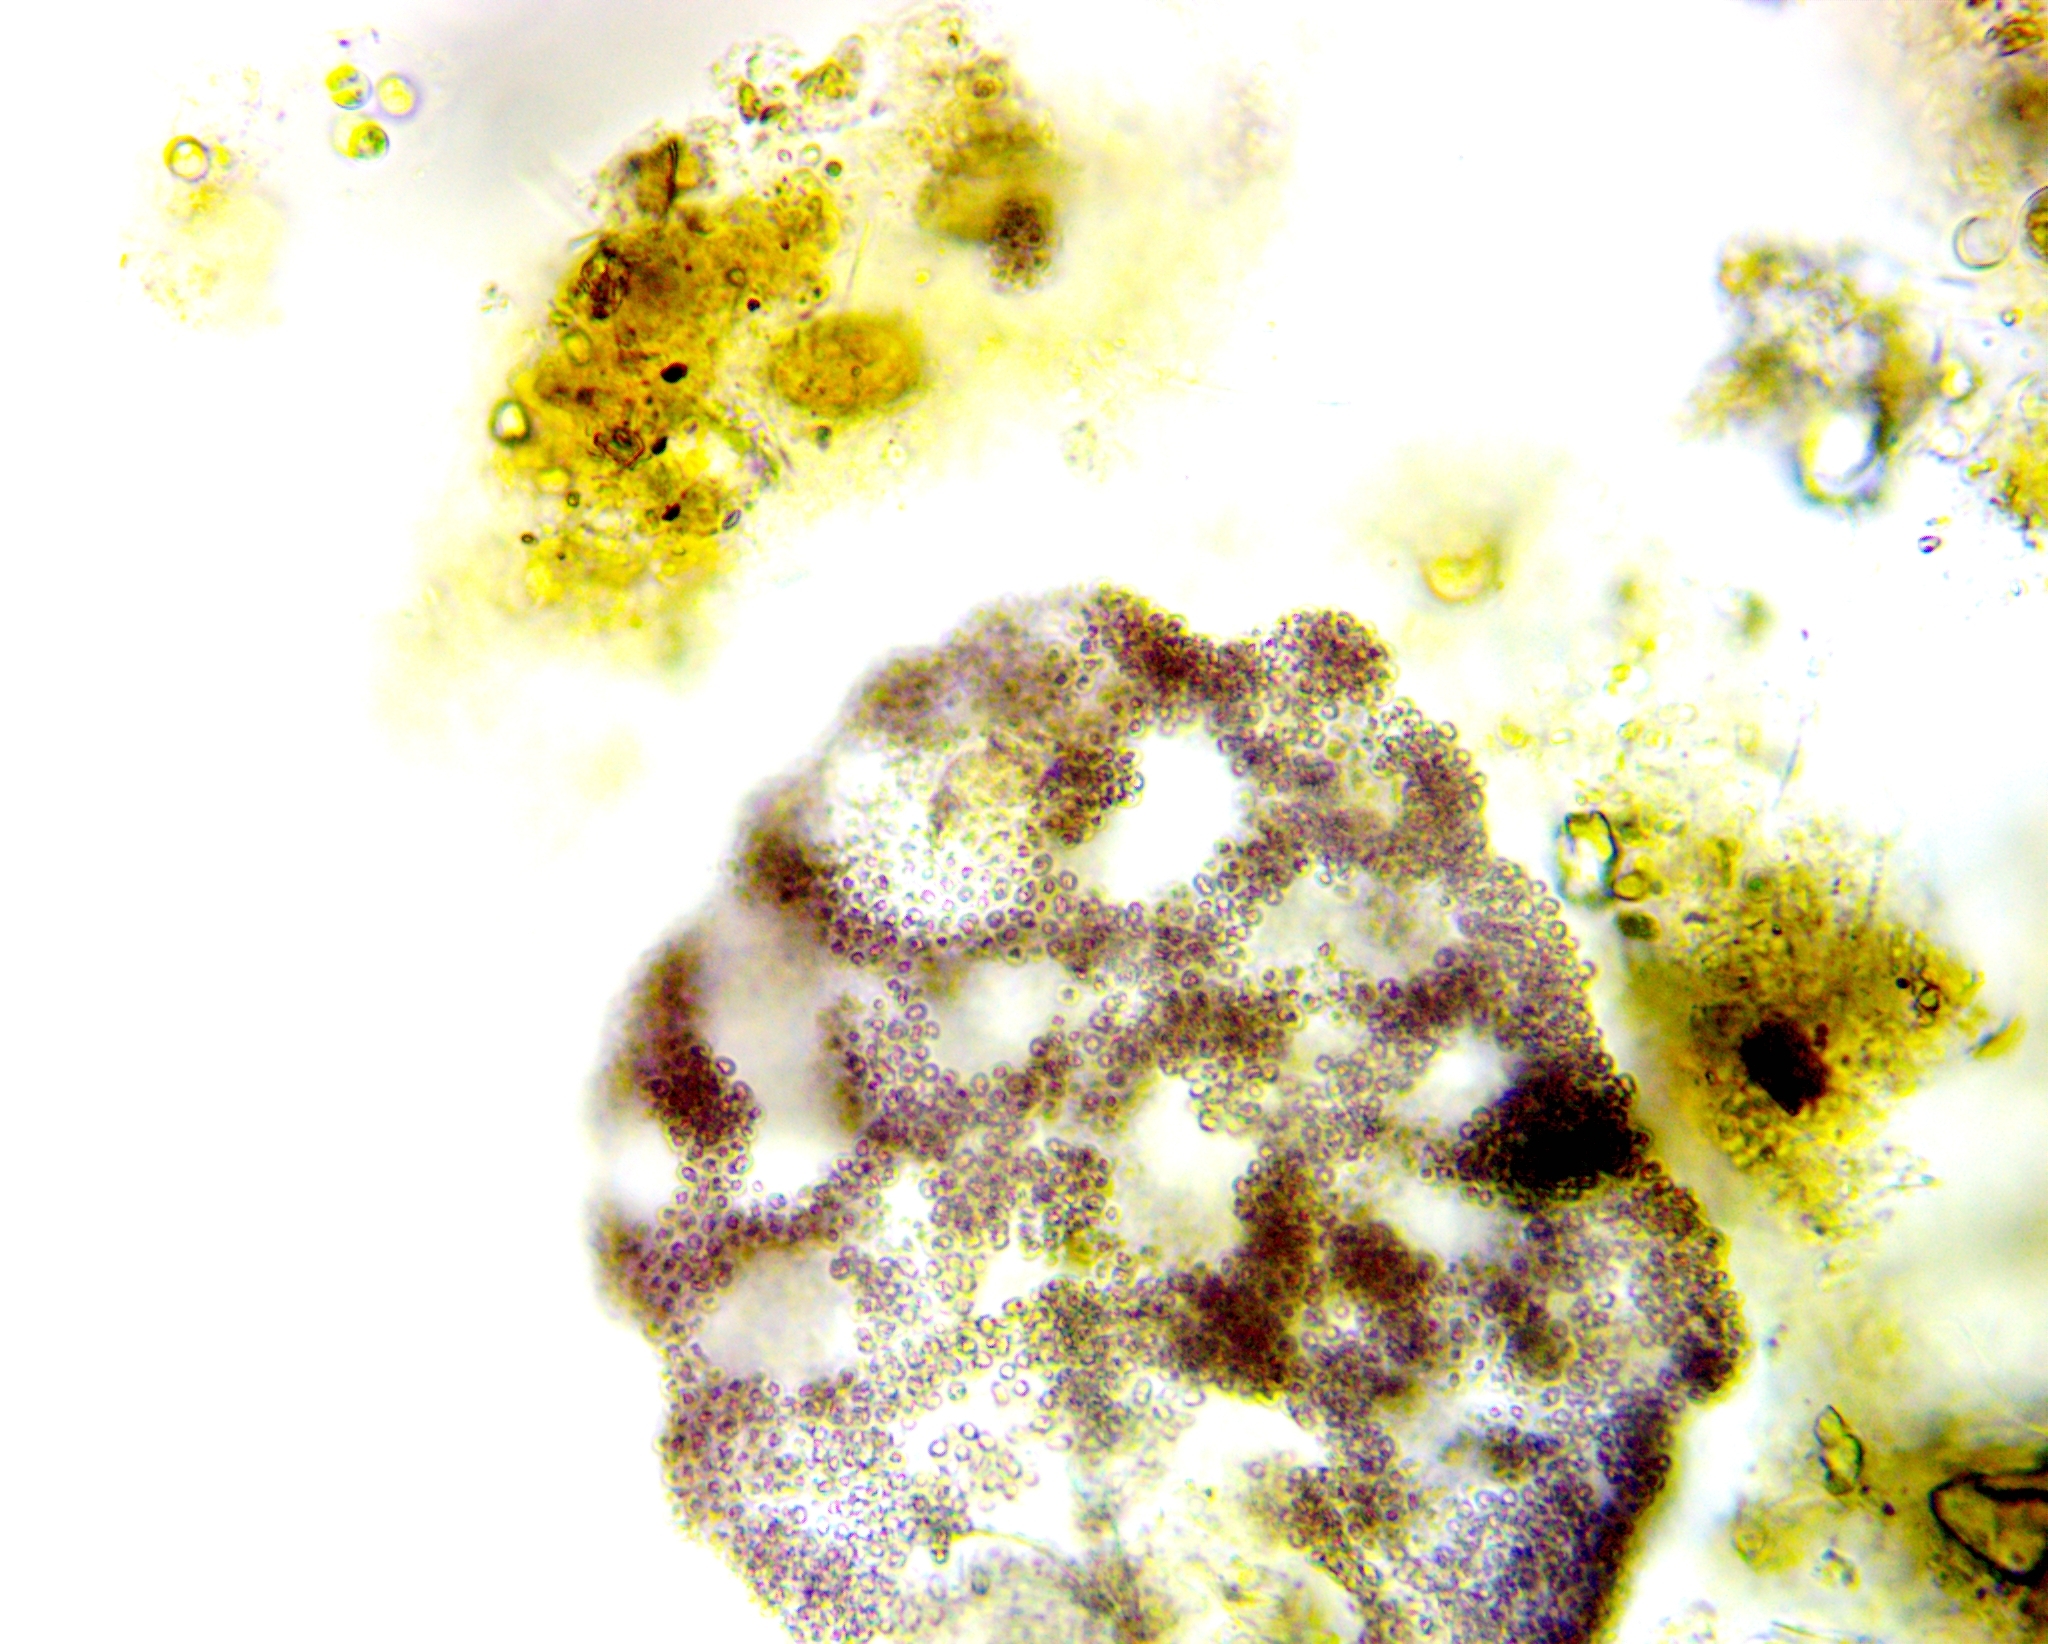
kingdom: Bacteria
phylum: Proteobacteria
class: Gammaproteobacteria
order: Chromatiales
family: Chromatiaceae
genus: Lamprocystis
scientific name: Lamprocystis roseopersicina
